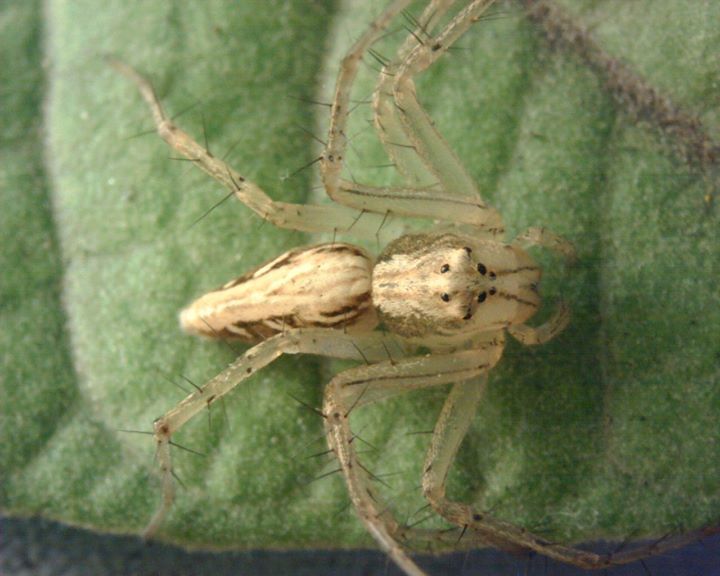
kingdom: Animalia
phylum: Arthropoda
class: Arachnida
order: Araneae
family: Oxyopidae
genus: Oxyopes
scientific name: Oxyopes sertatus
